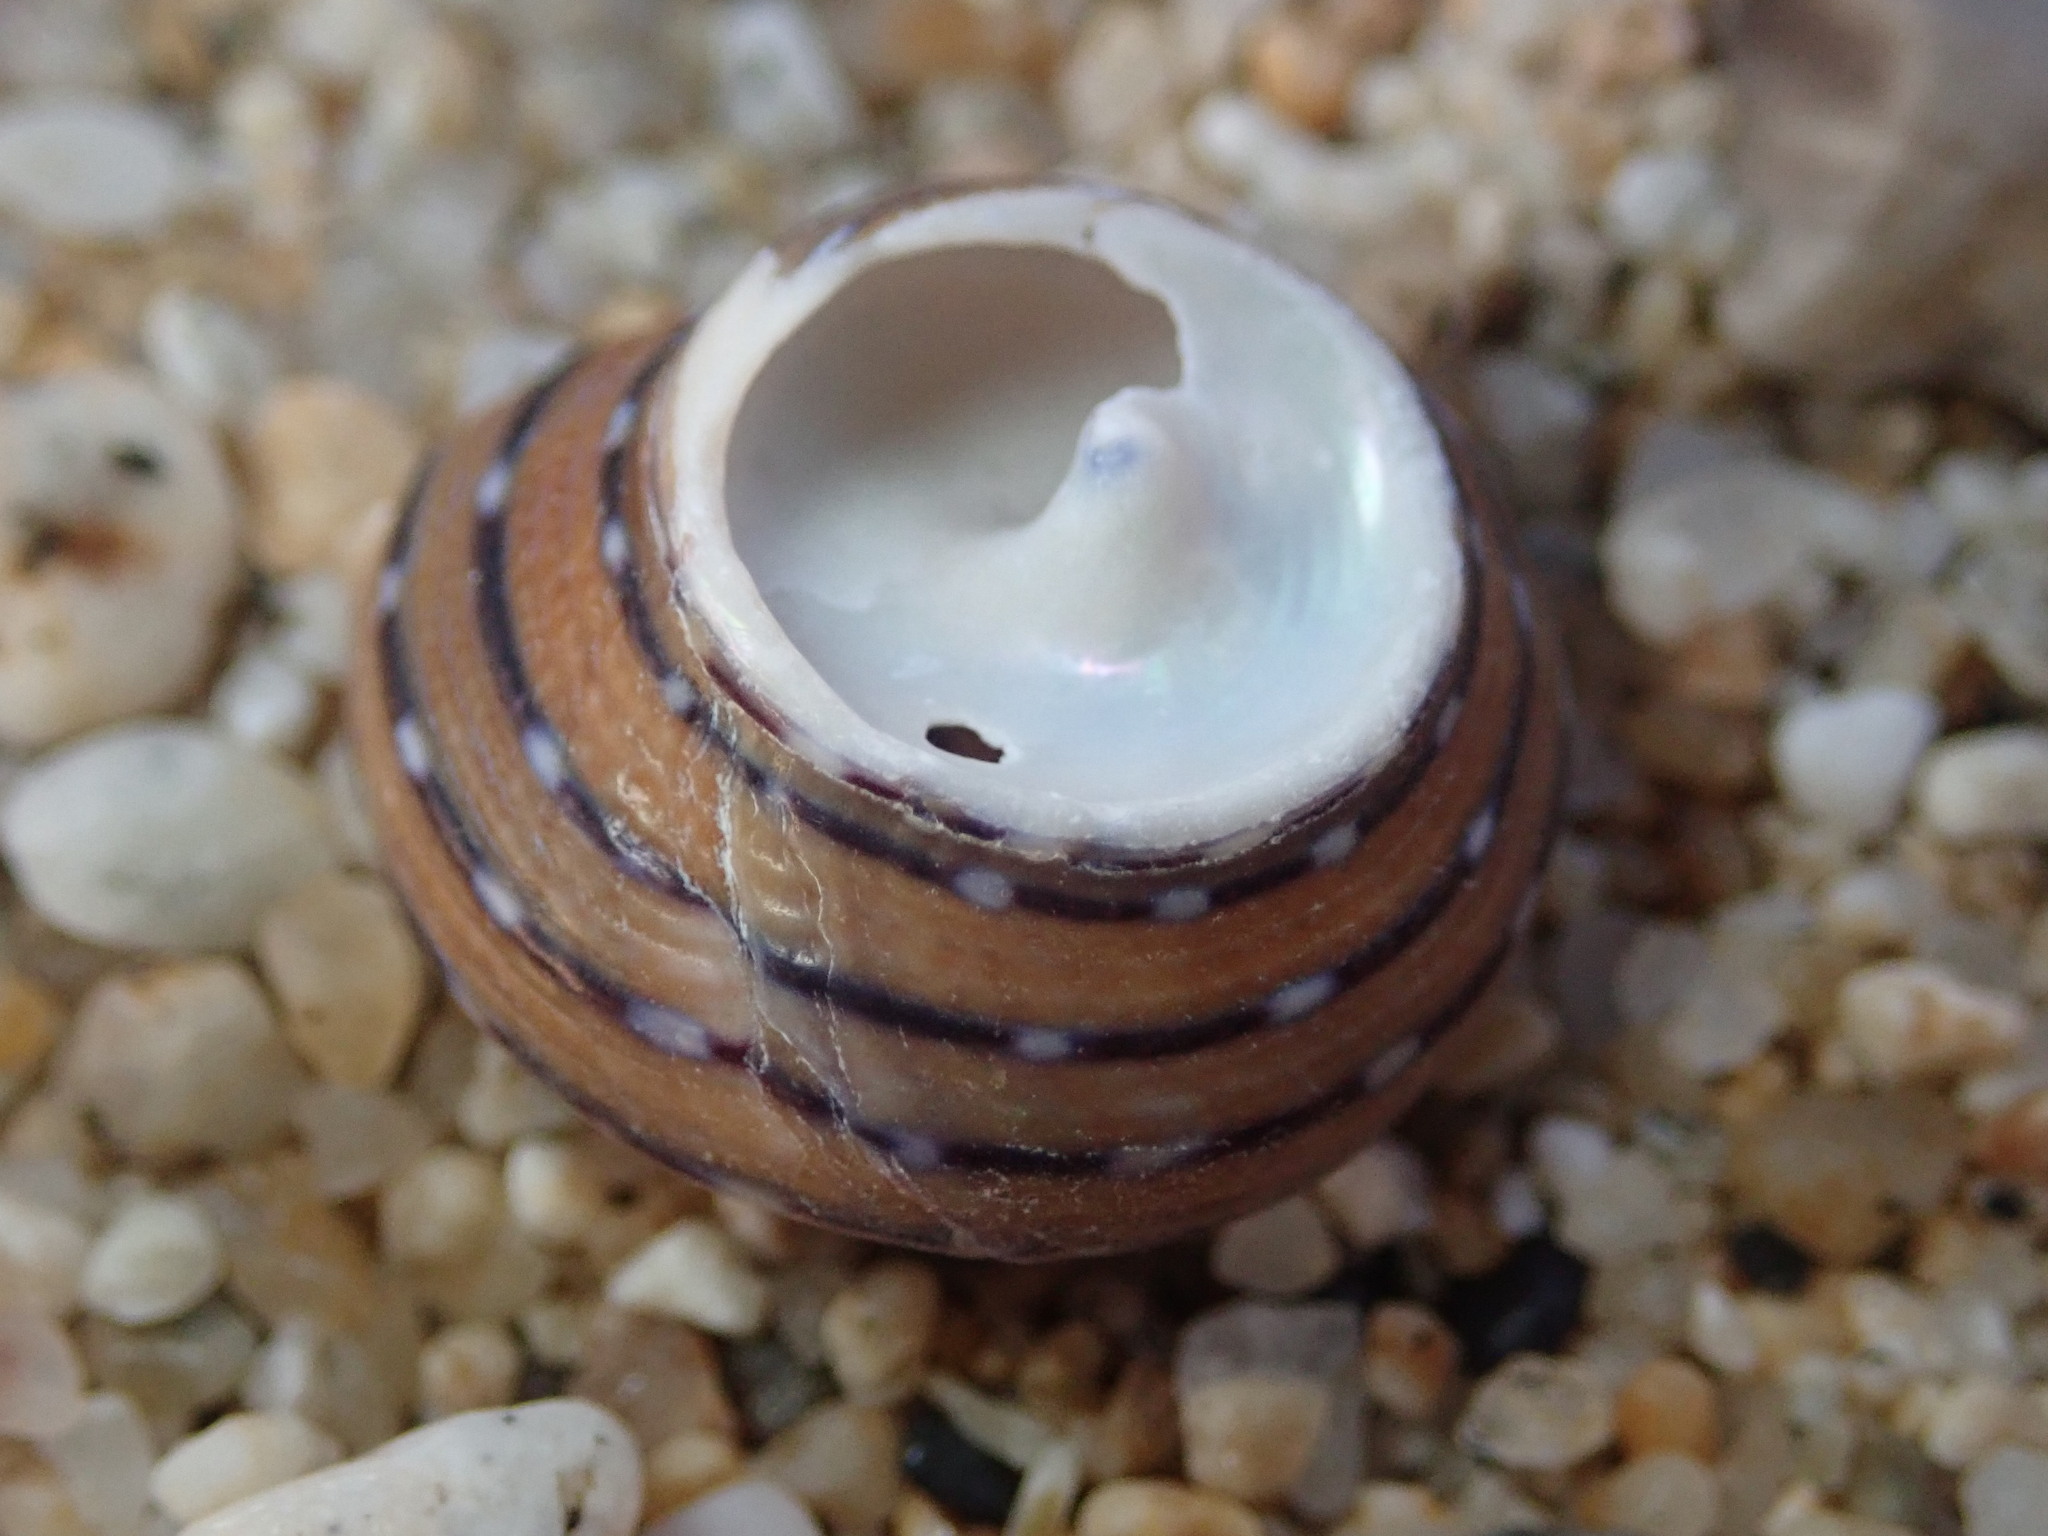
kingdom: Animalia
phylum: Mollusca
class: Gastropoda
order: Trochida
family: Calliostomatidae
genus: Calliostoma
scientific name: Calliostoma tricolor
